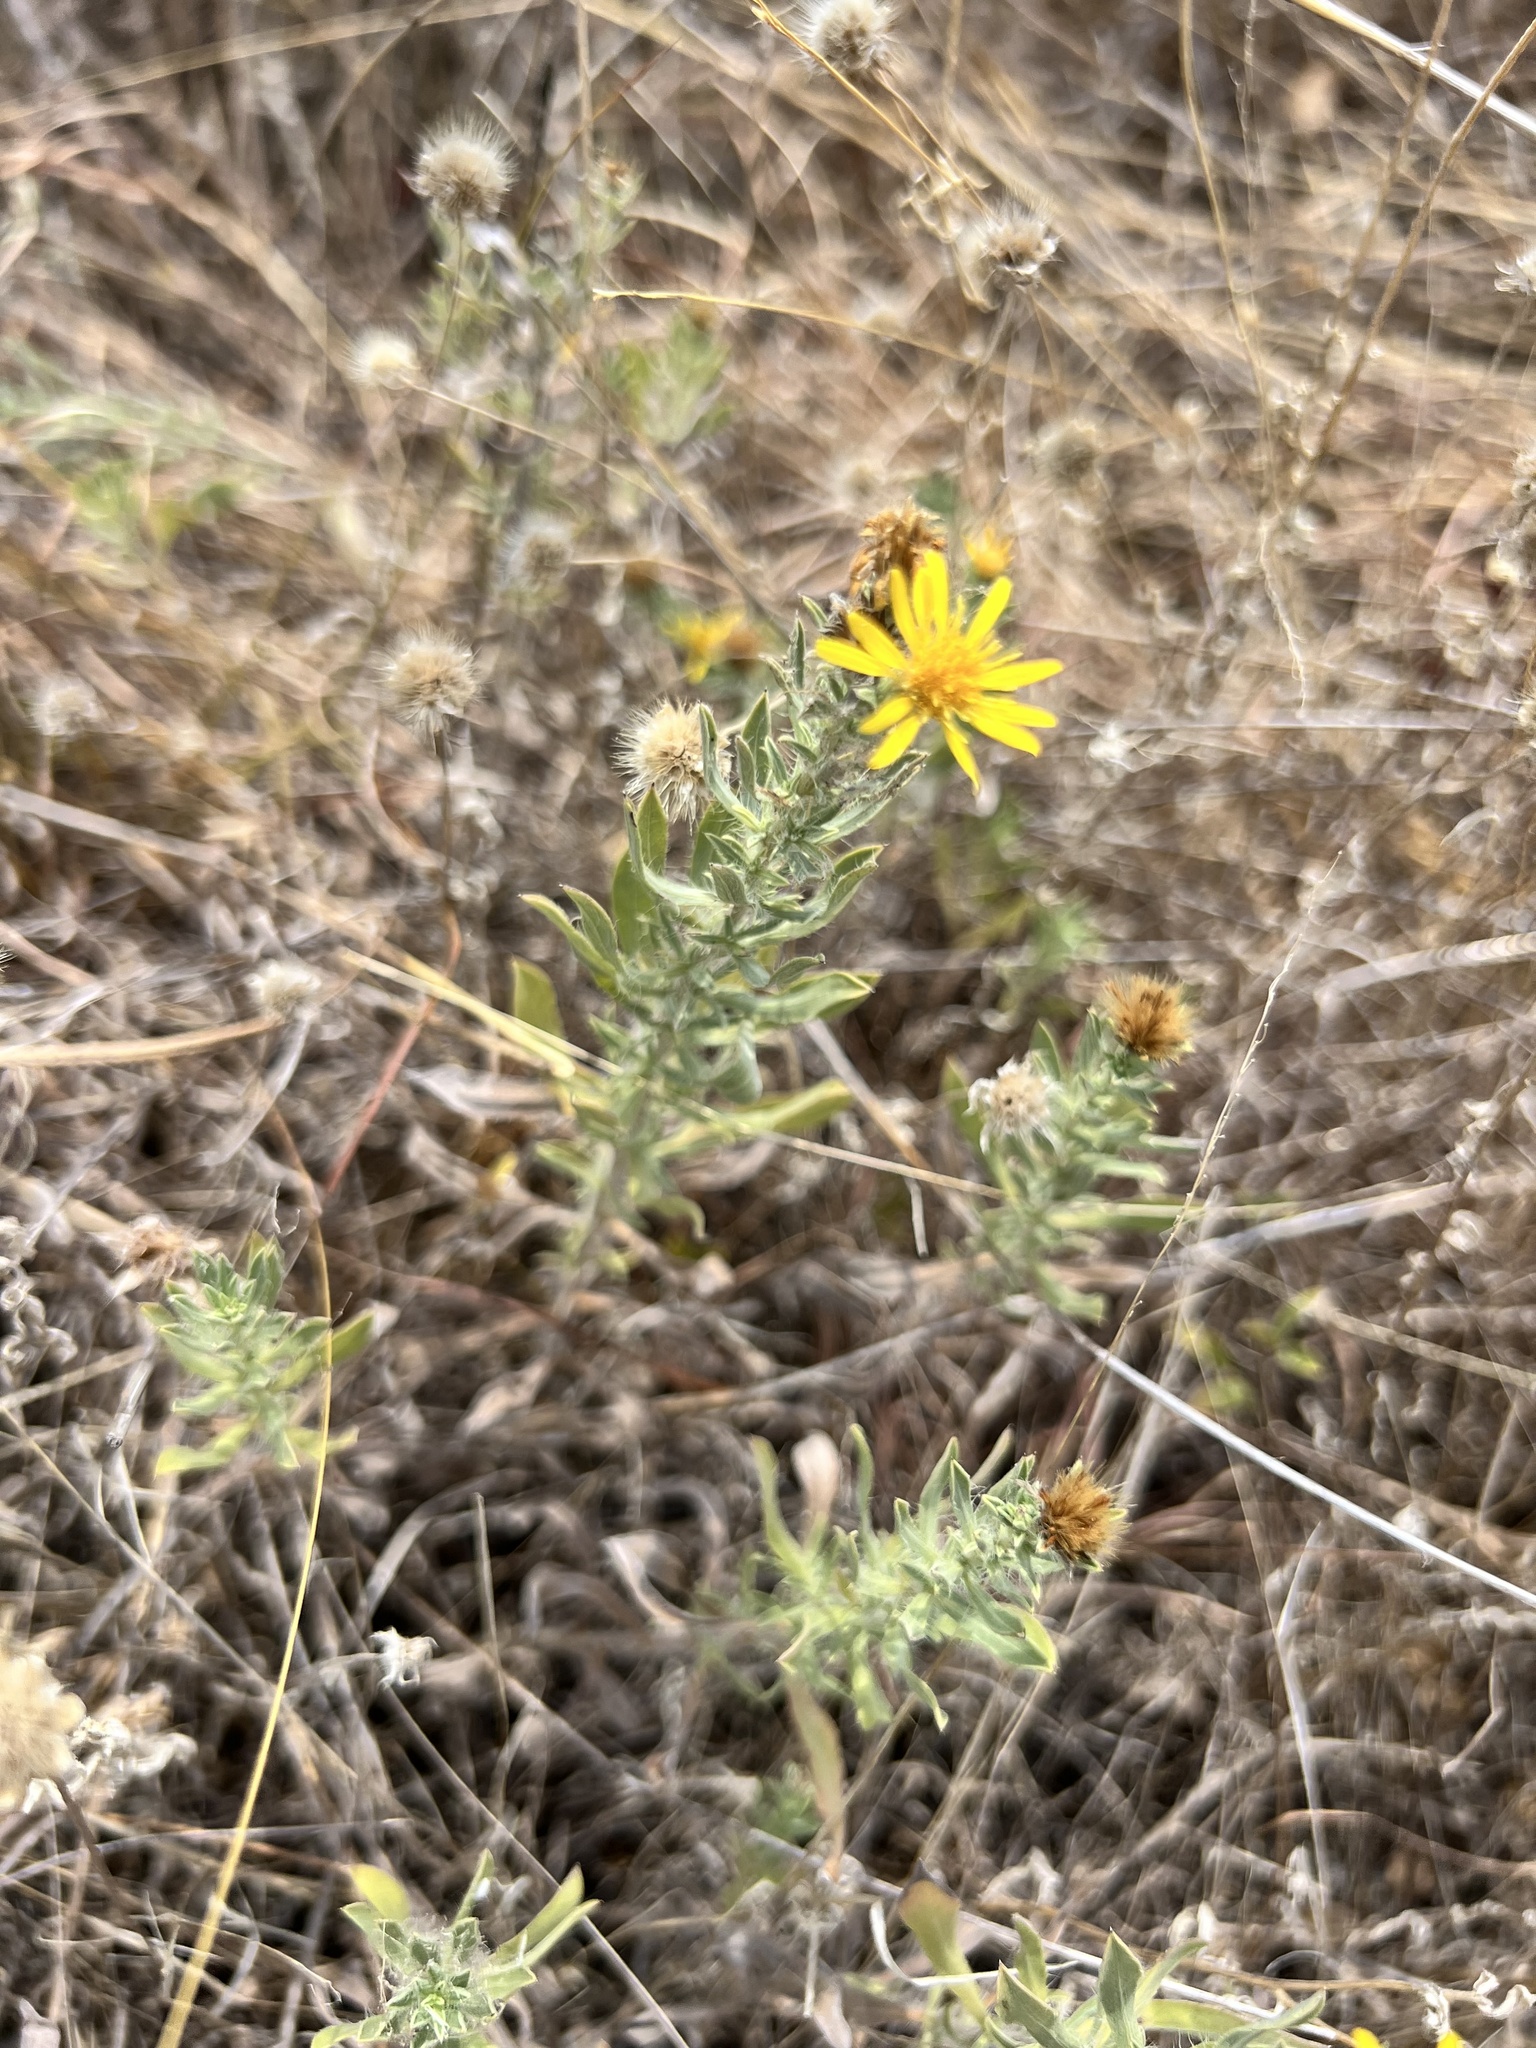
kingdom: Plantae
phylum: Tracheophyta
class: Magnoliopsida
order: Asterales
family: Asteraceae
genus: Heterotheca
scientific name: Heterotheca canescens
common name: Hoary golden-aster
